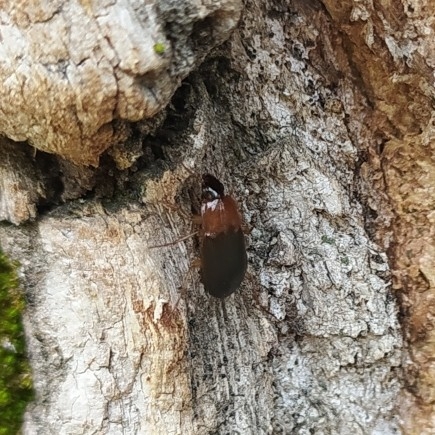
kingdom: Animalia
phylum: Arthropoda
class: Insecta
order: Coleoptera
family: Carabidae
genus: Calathus
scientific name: Calathus melanocephalus
